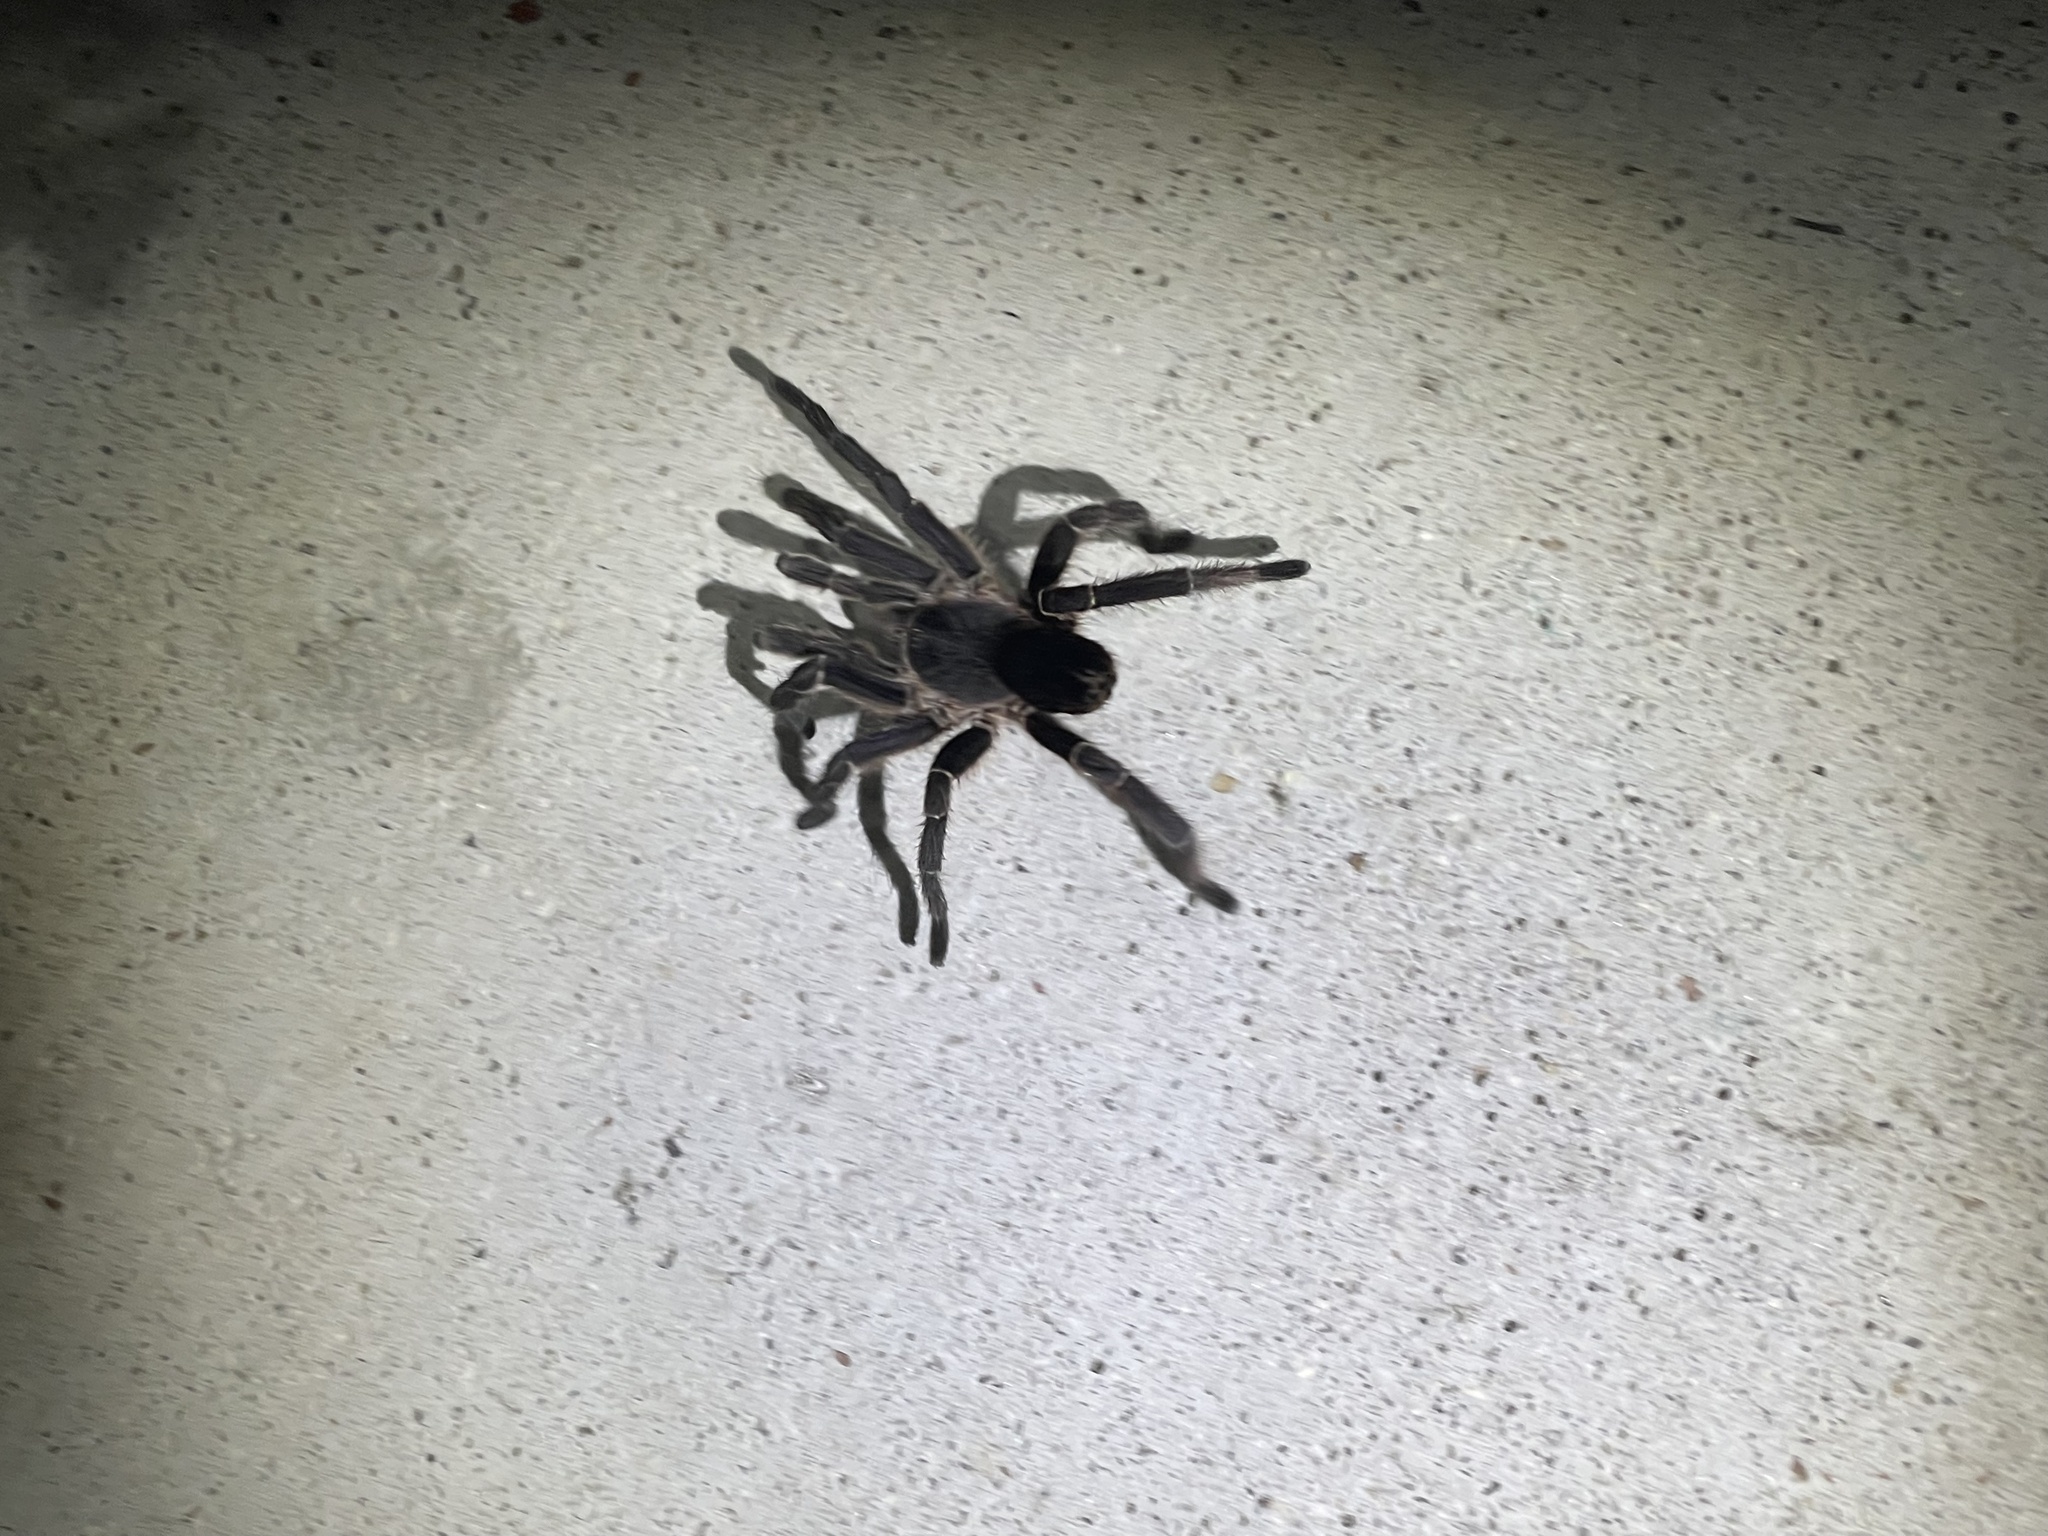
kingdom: Animalia
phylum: Arthropoda
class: Arachnida
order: Araneae
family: Theraphosidae
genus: Eupalaestrus
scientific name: Eupalaestrus weijenberghi
